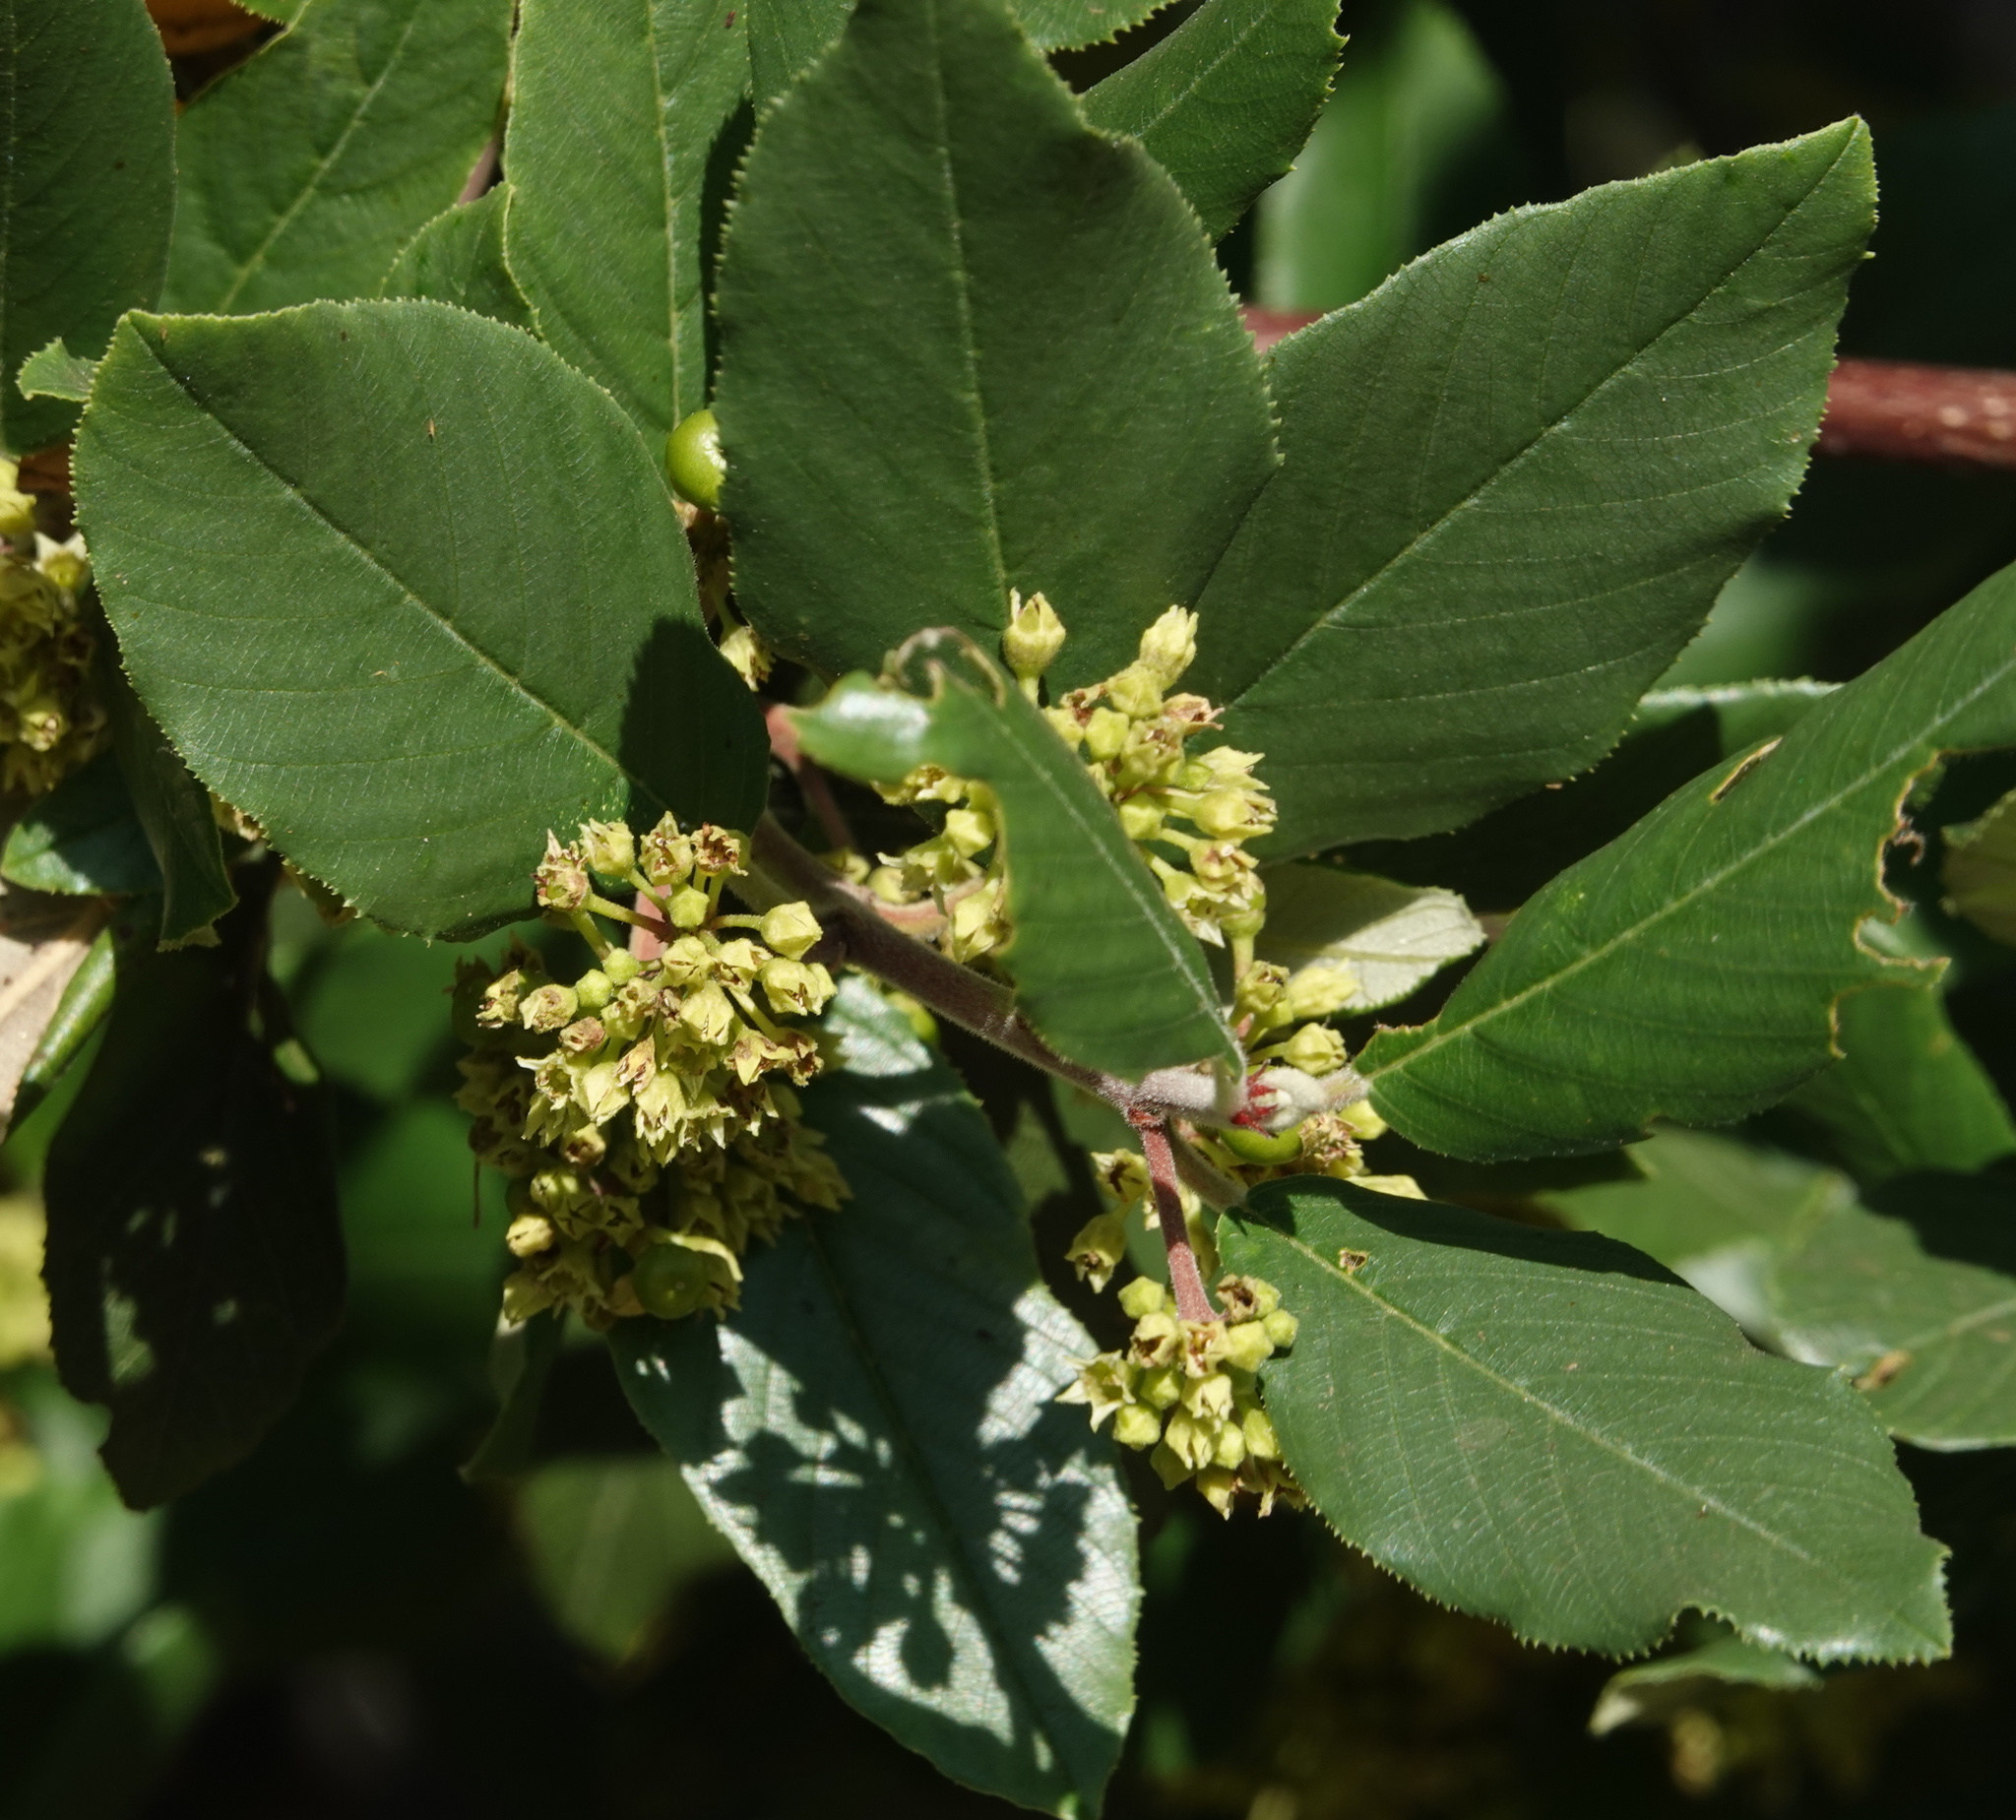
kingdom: Plantae
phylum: Tracheophyta
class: Magnoliopsida
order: Rosales
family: Rhamnaceae
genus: Frangula
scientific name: Frangula californica
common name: California buckthorn
